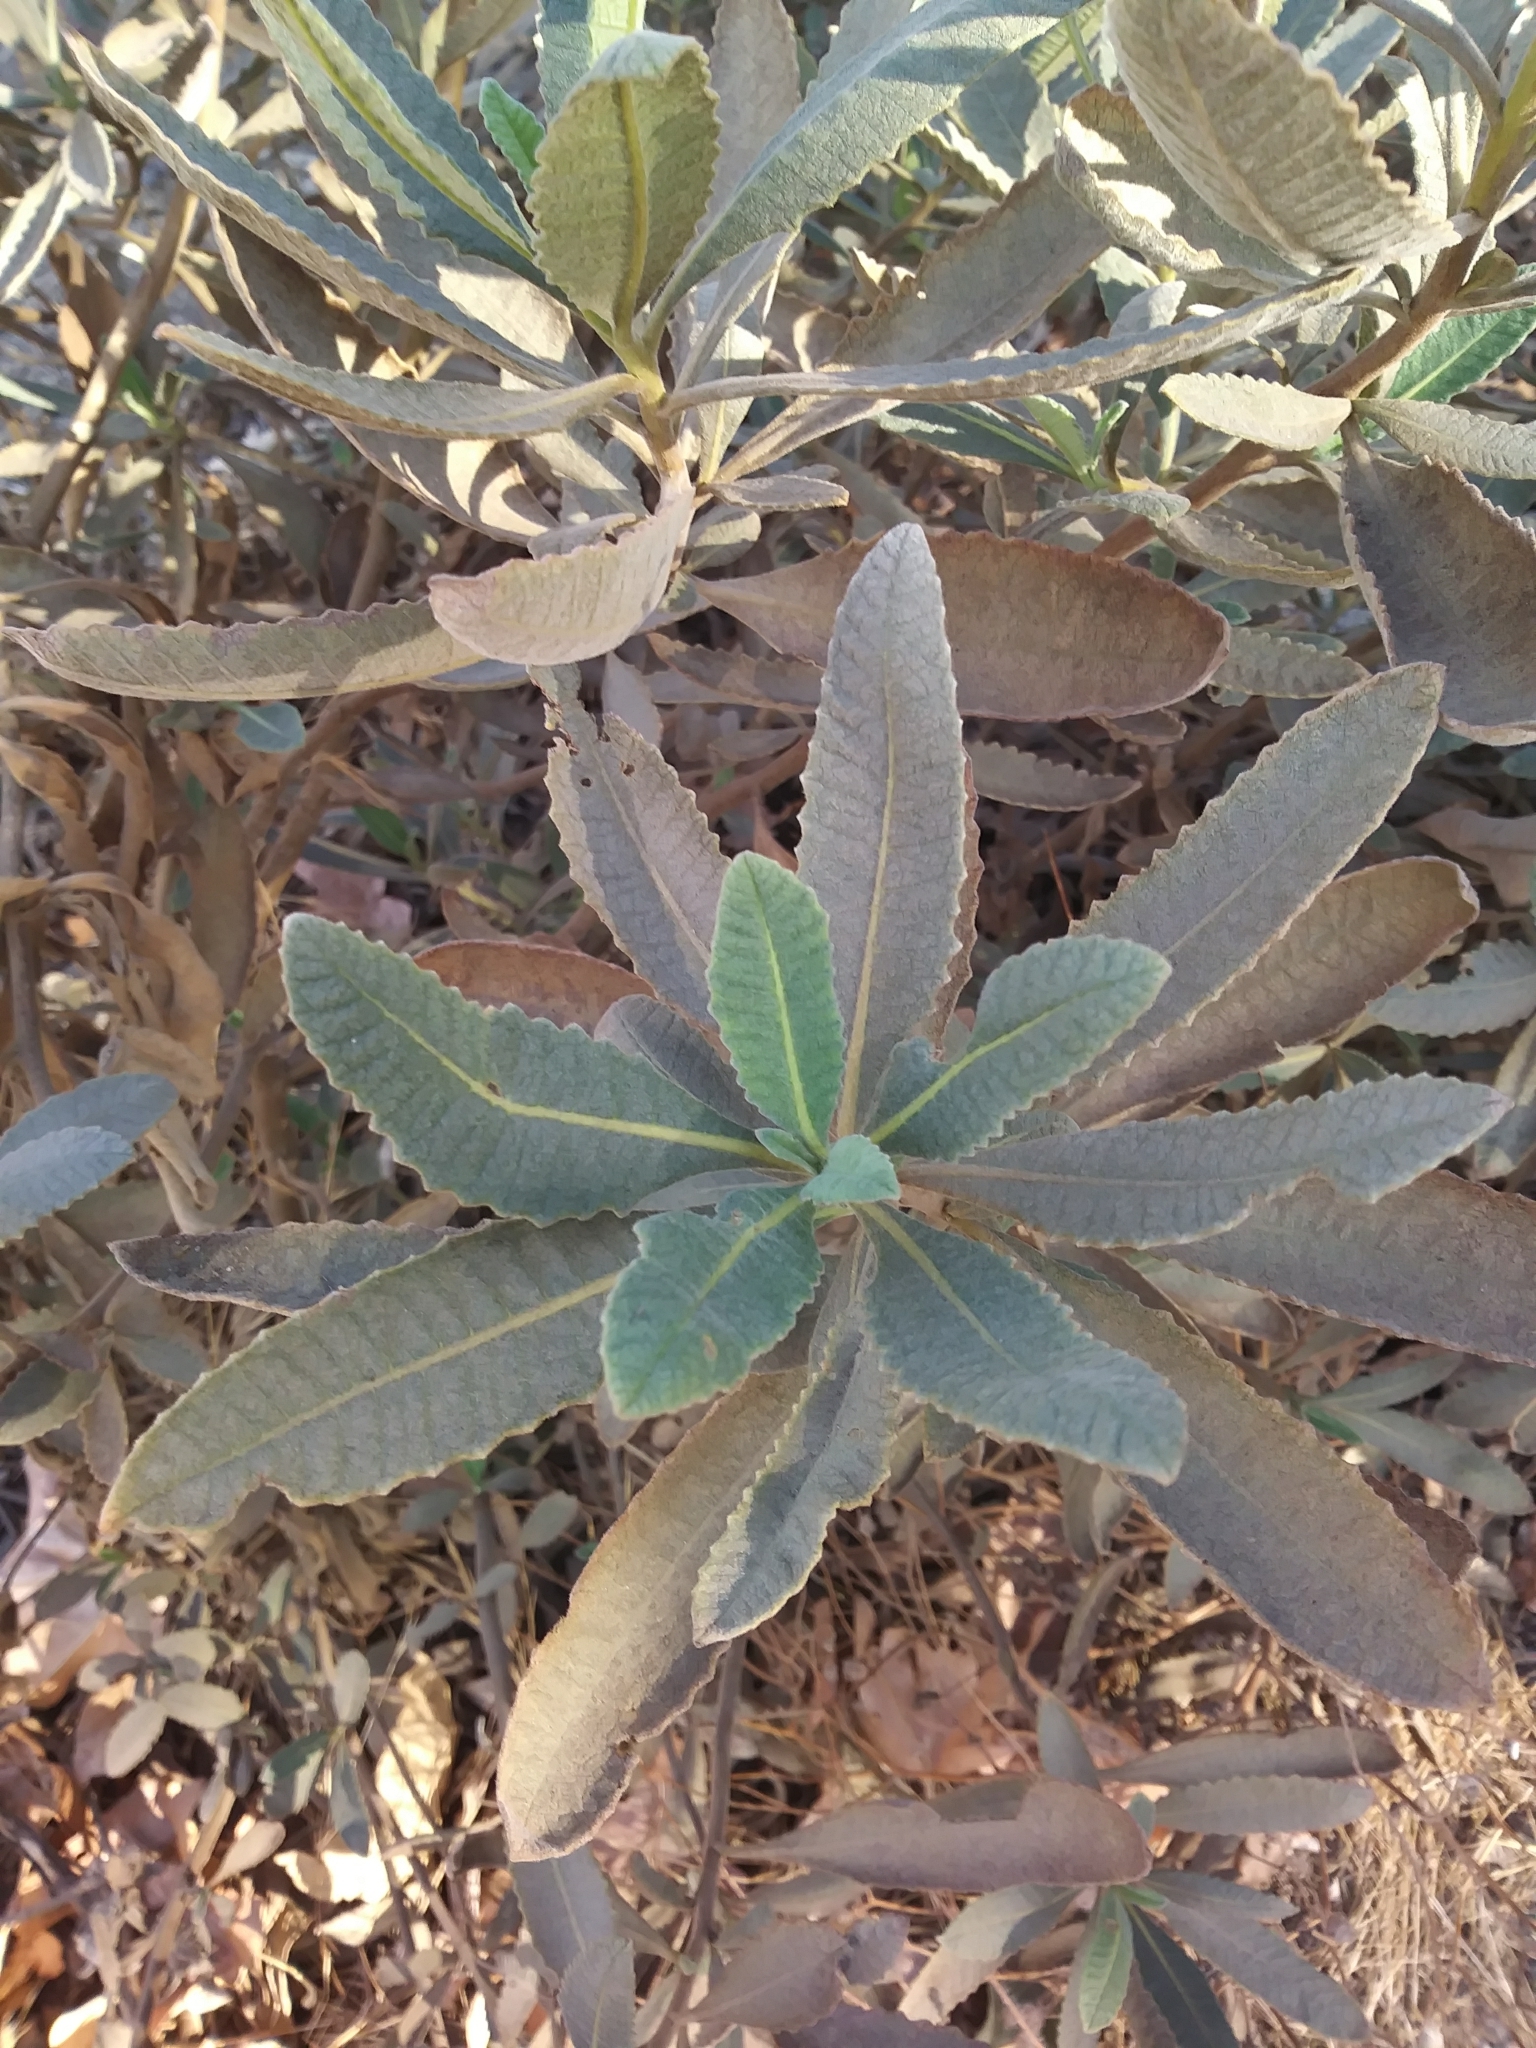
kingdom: Plantae
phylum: Tracheophyta
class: Magnoliopsida
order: Boraginales
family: Namaceae
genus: Eriodictyon
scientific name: Eriodictyon crassifolium
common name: Thick-leaf yerba-santa
